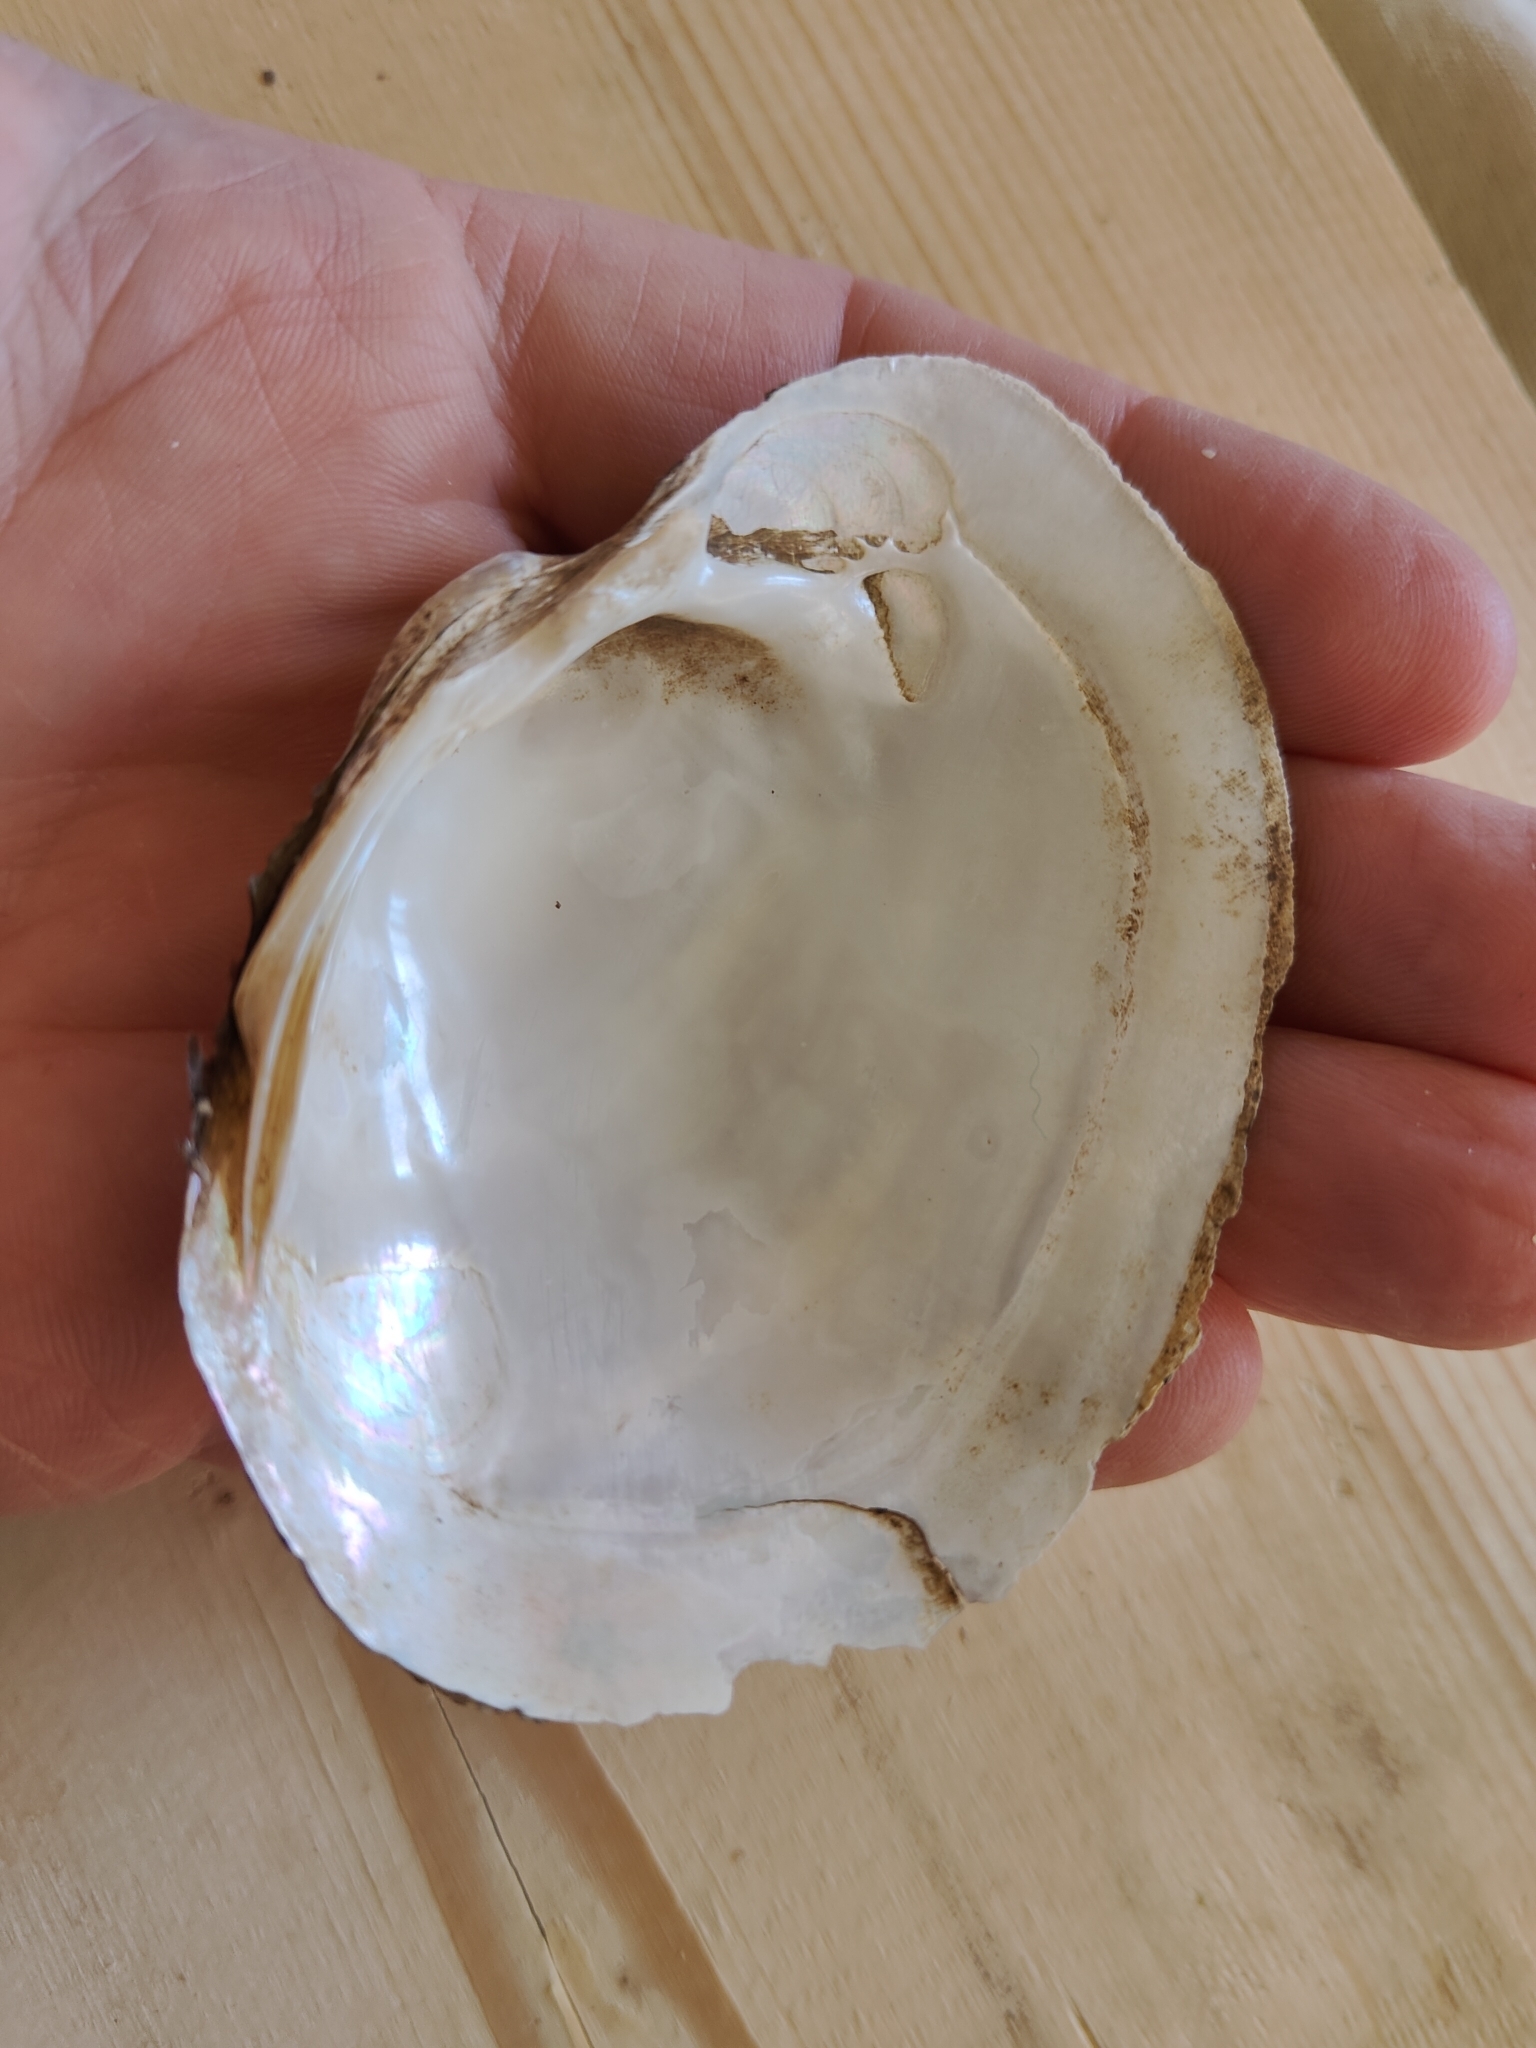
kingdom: Animalia
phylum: Mollusca
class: Bivalvia
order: Unionida
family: Unionidae
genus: Lampsilis
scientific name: Lampsilis cardium
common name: Plain pocketbook
